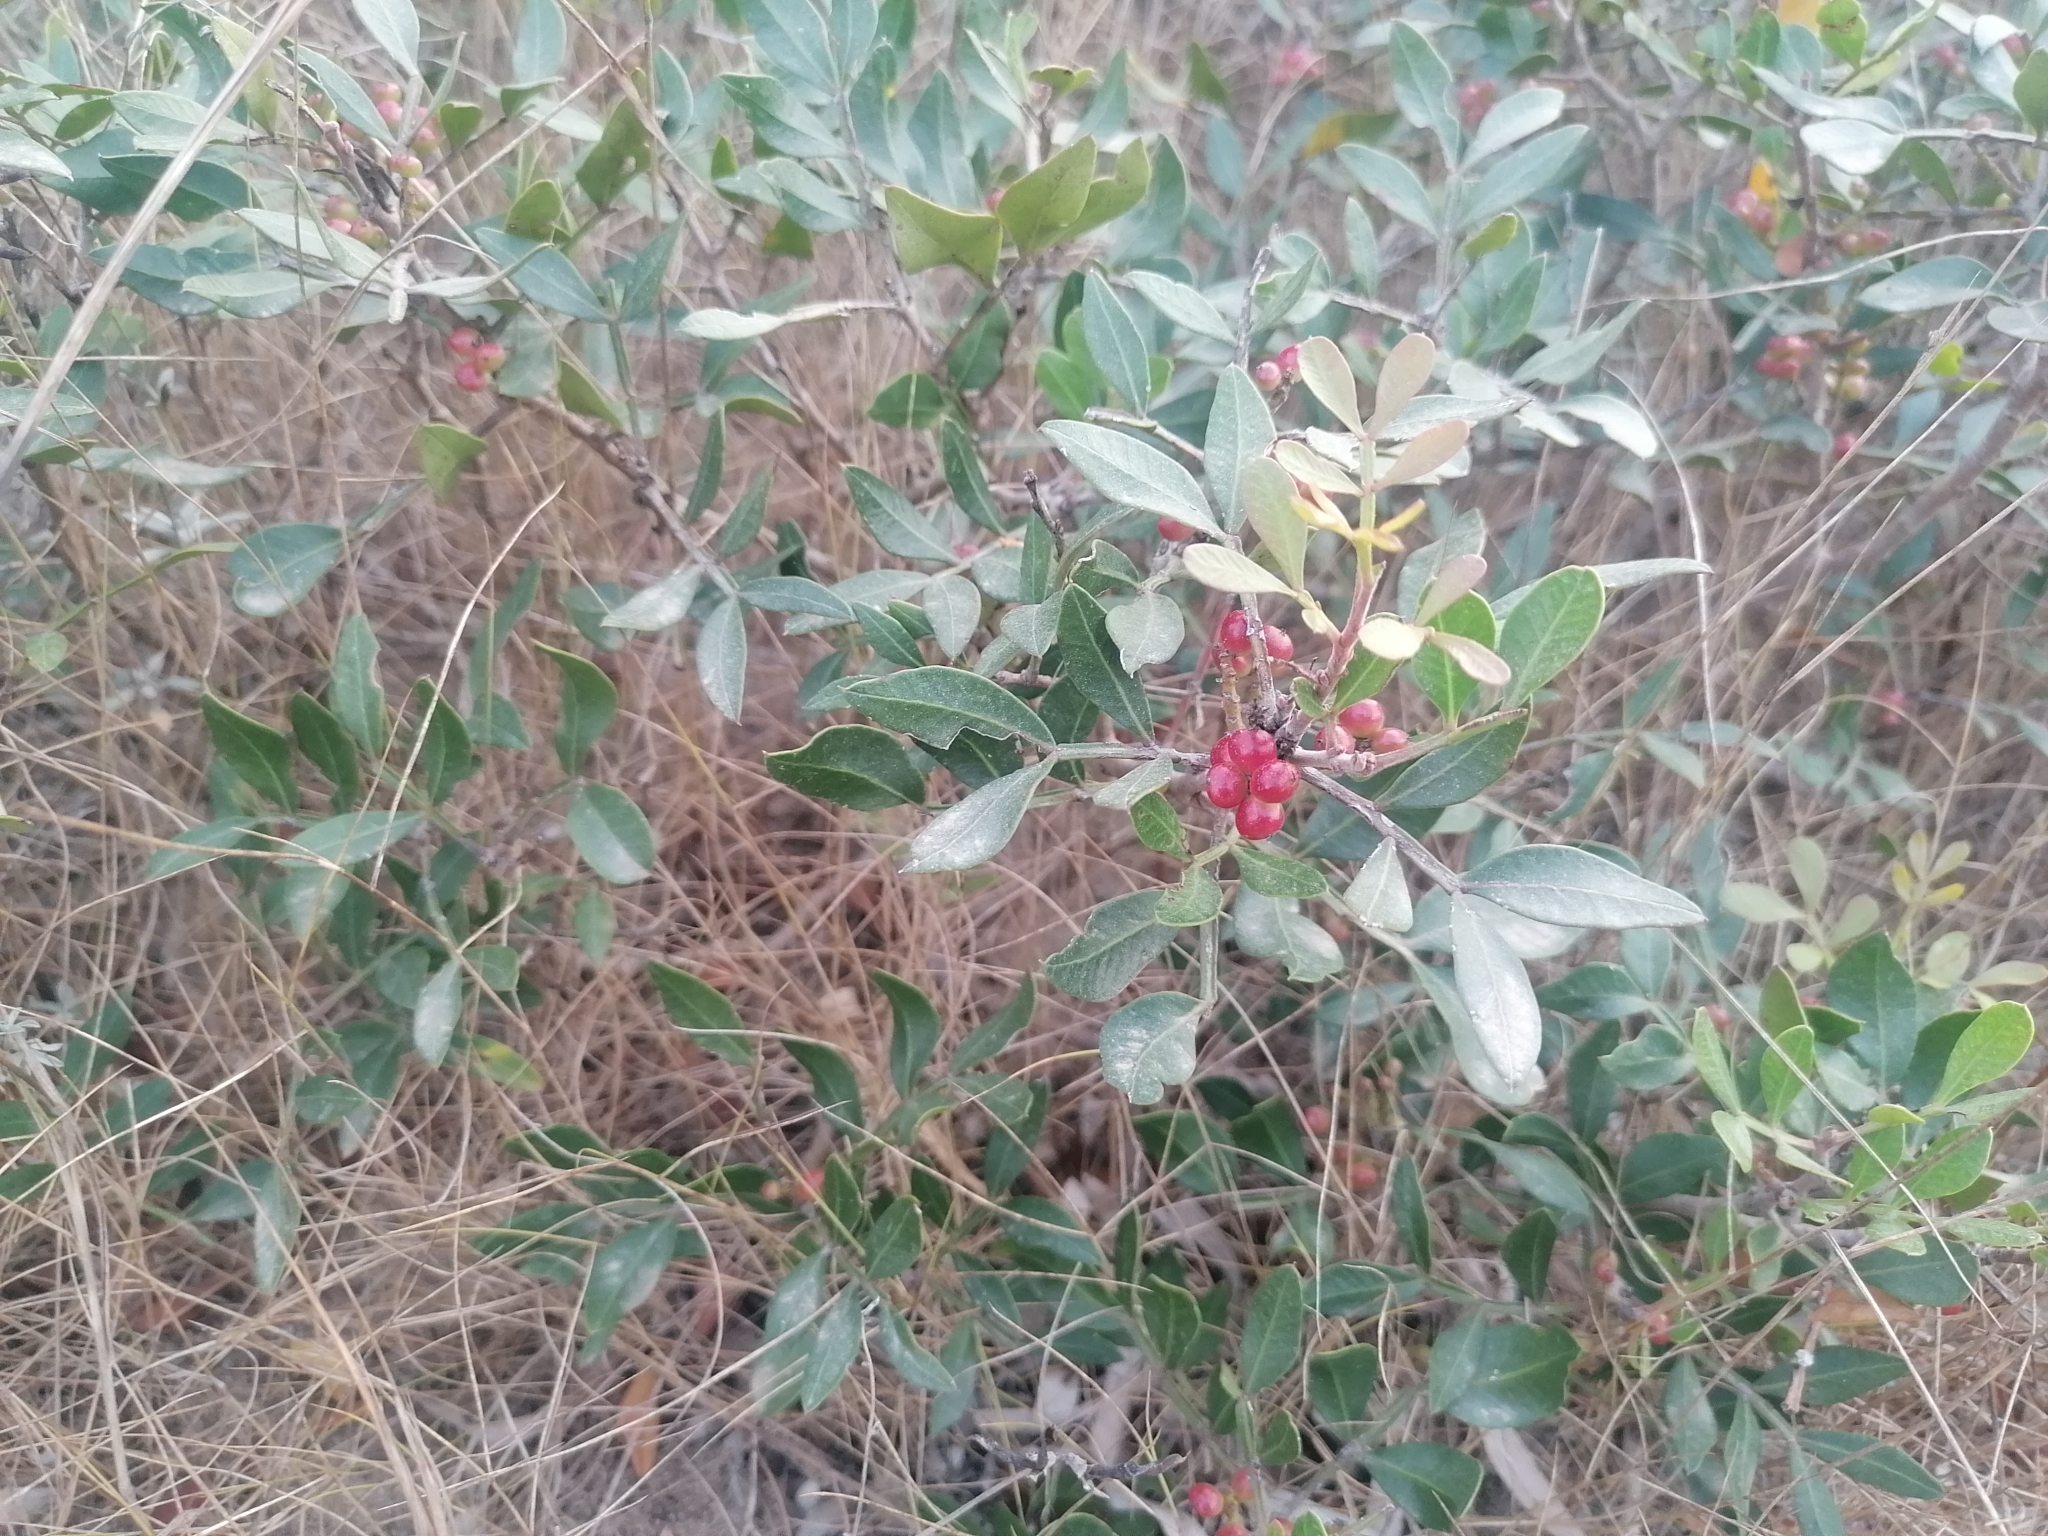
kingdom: Plantae
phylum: Tracheophyta
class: Magnoliopsida
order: Sapindales
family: Anacardiaceae
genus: Pistacia
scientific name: Pistacia lentiscus
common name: Lentisk
